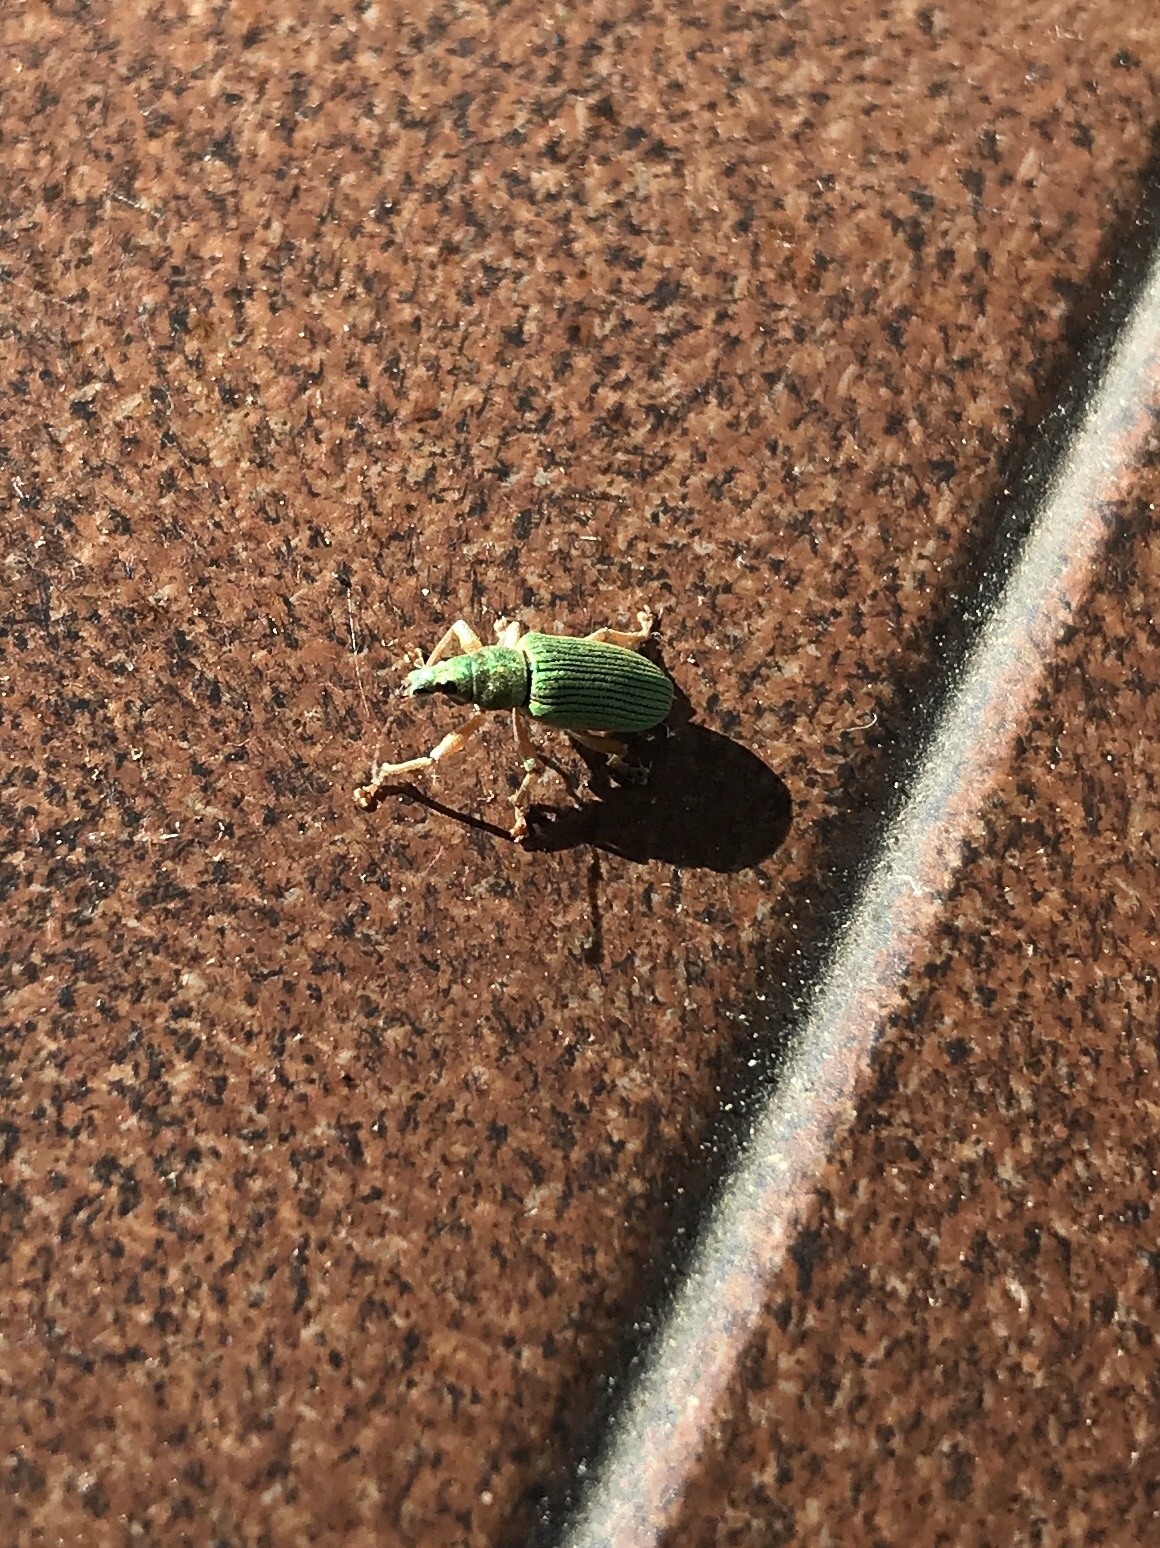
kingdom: Animalia
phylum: Arthropoda
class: Insecta
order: Coleoptera
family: Curculionidae
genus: Polydrusus
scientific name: Polydrusus formosus
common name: Weevil
